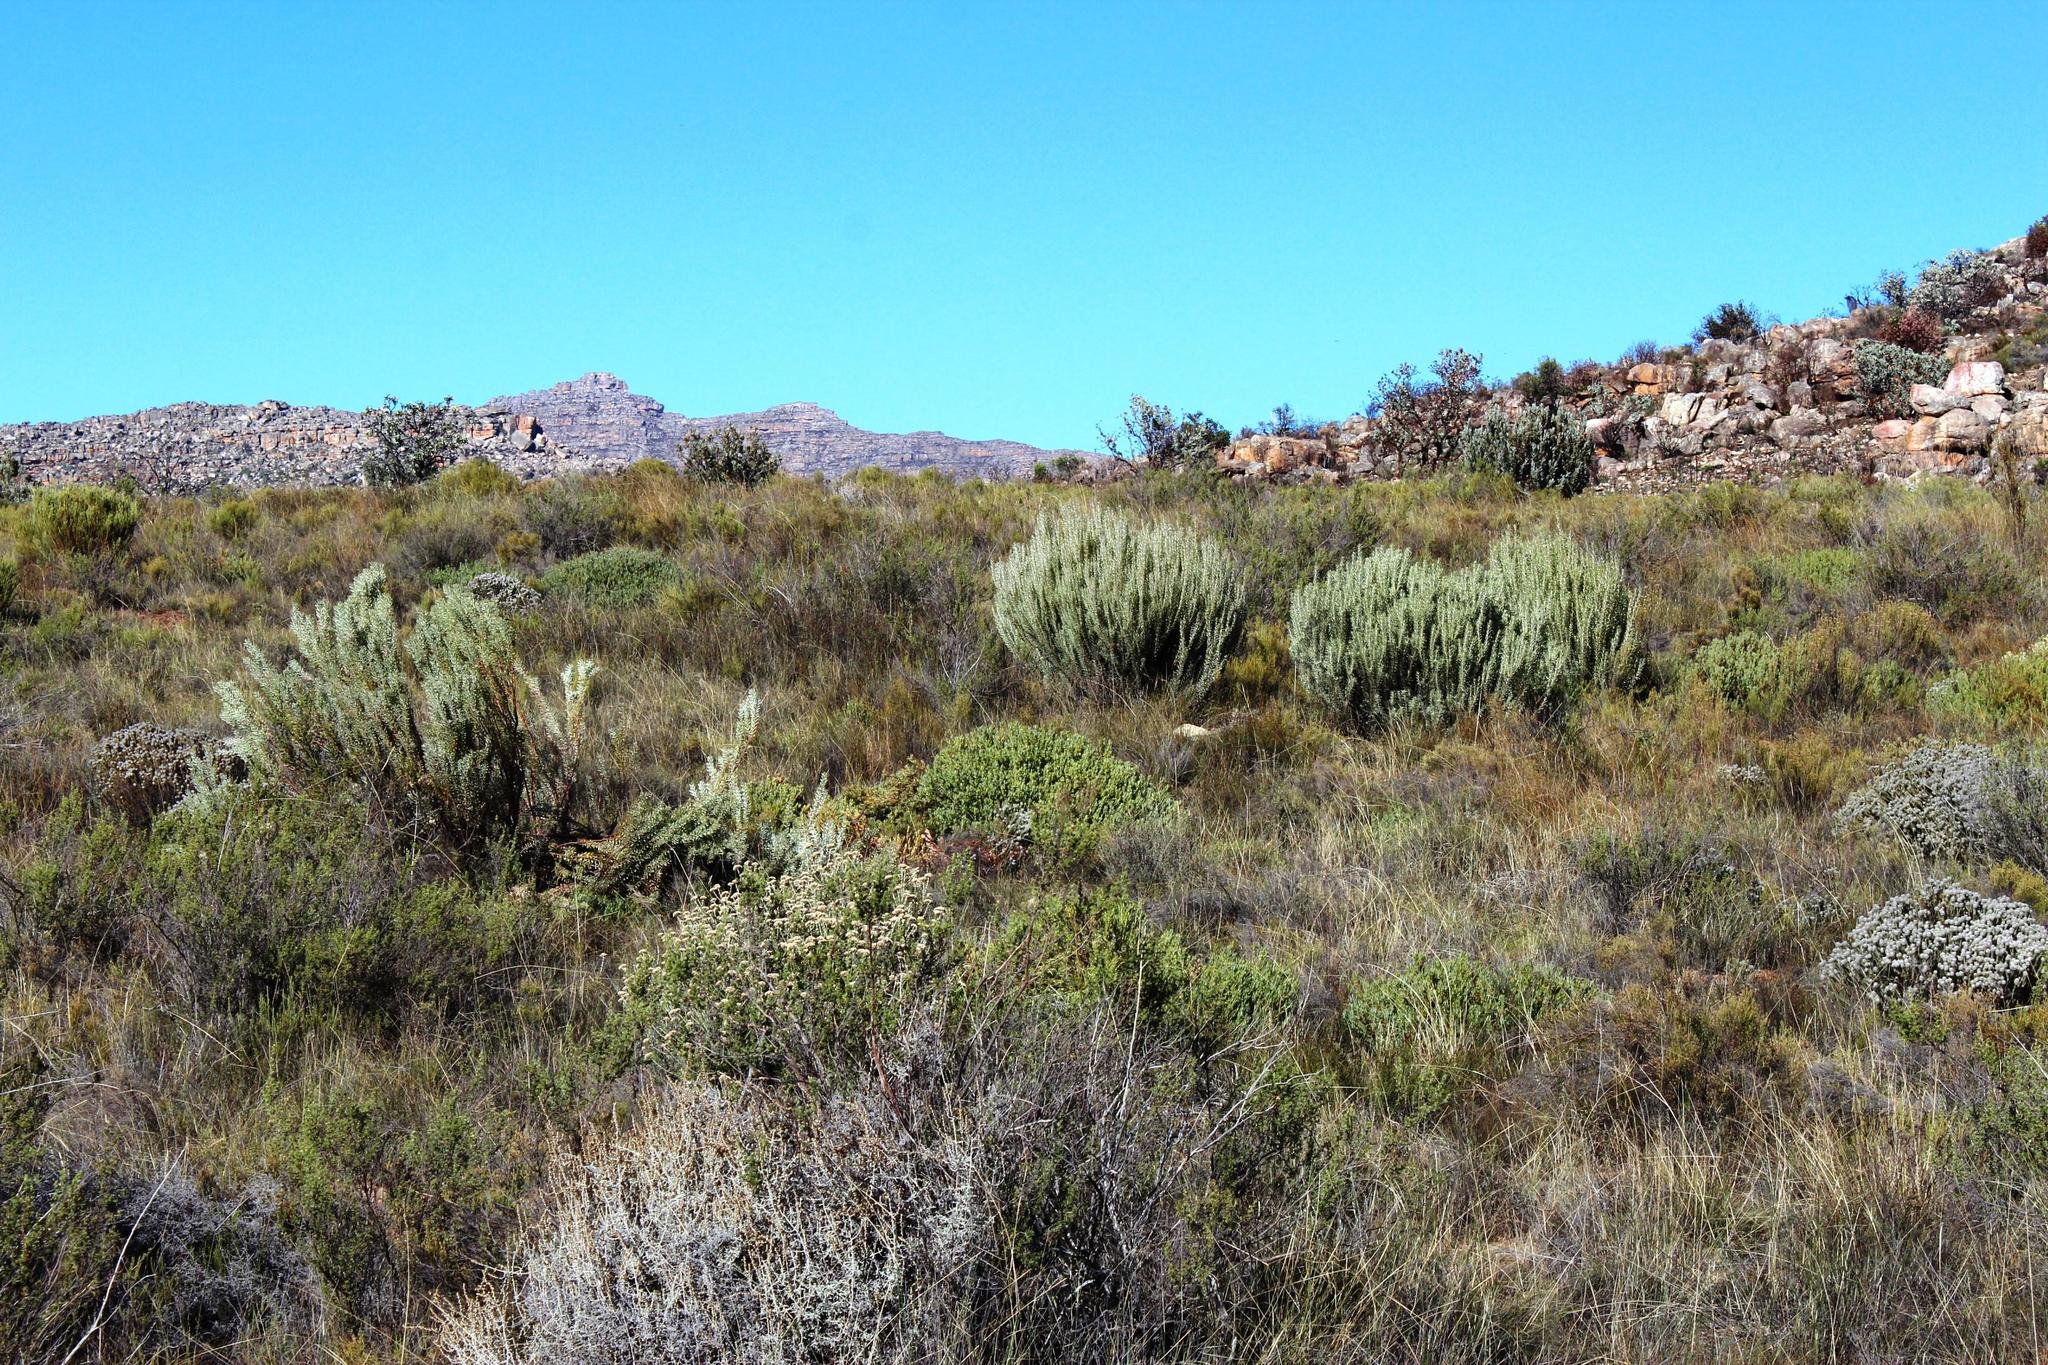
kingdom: Plantae
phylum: Tracheophyta
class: Magnoliopsida
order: Proteales
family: Proteaceae
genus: Leucadendron
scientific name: Leucadendron pubescens
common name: Grey conebush
